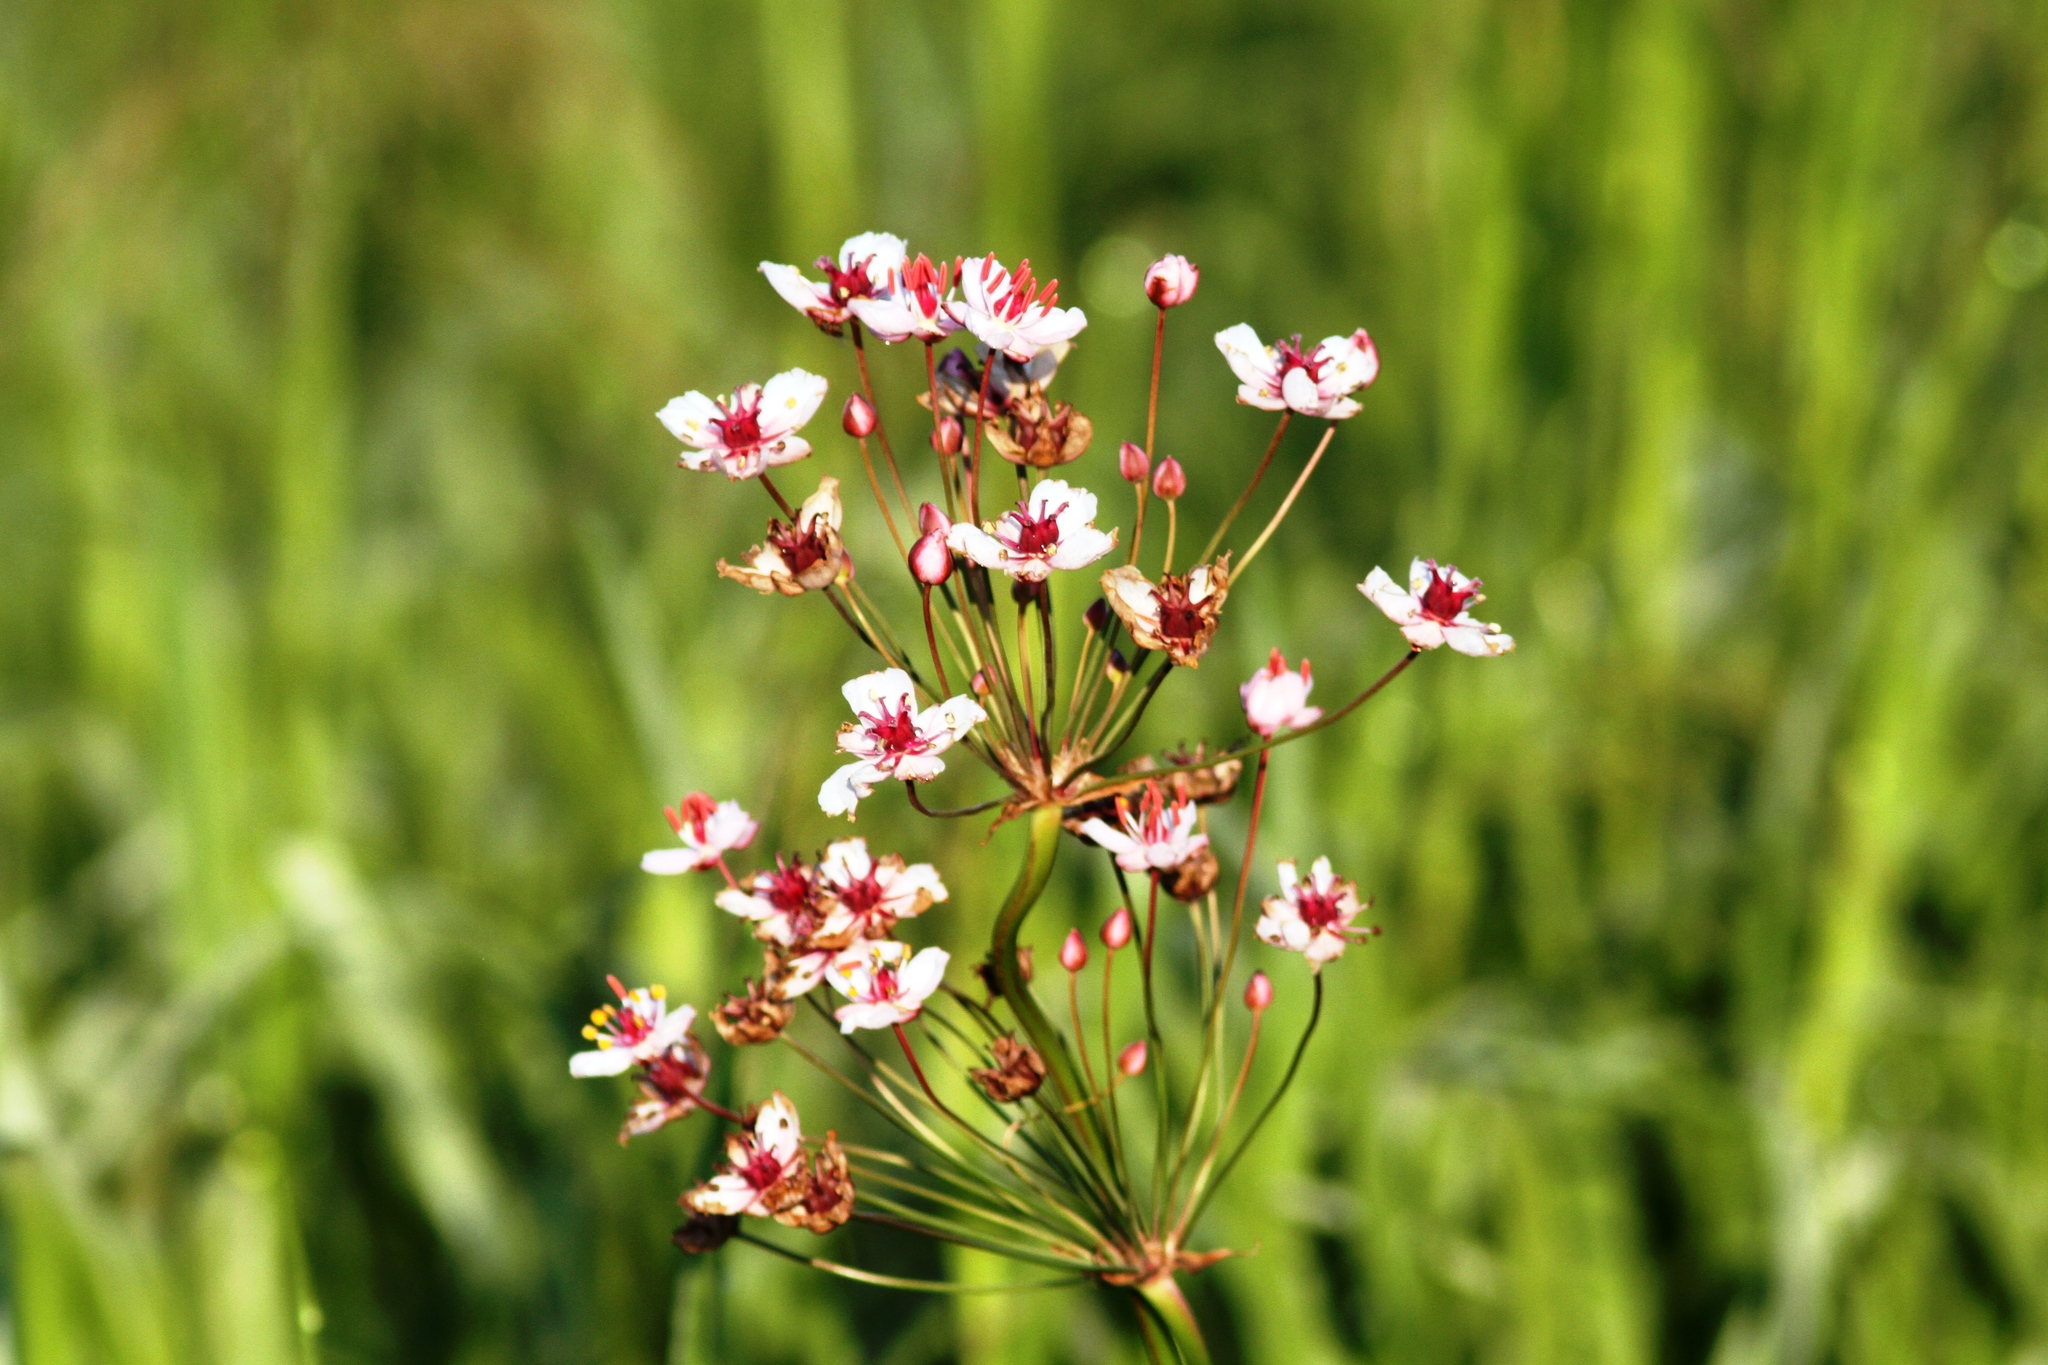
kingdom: Plantae
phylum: Tracheophyta
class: Liliopsida
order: Alismatales
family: Butomaceae
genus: Butomus
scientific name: Butomus umbellatus
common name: Flowering-rush
